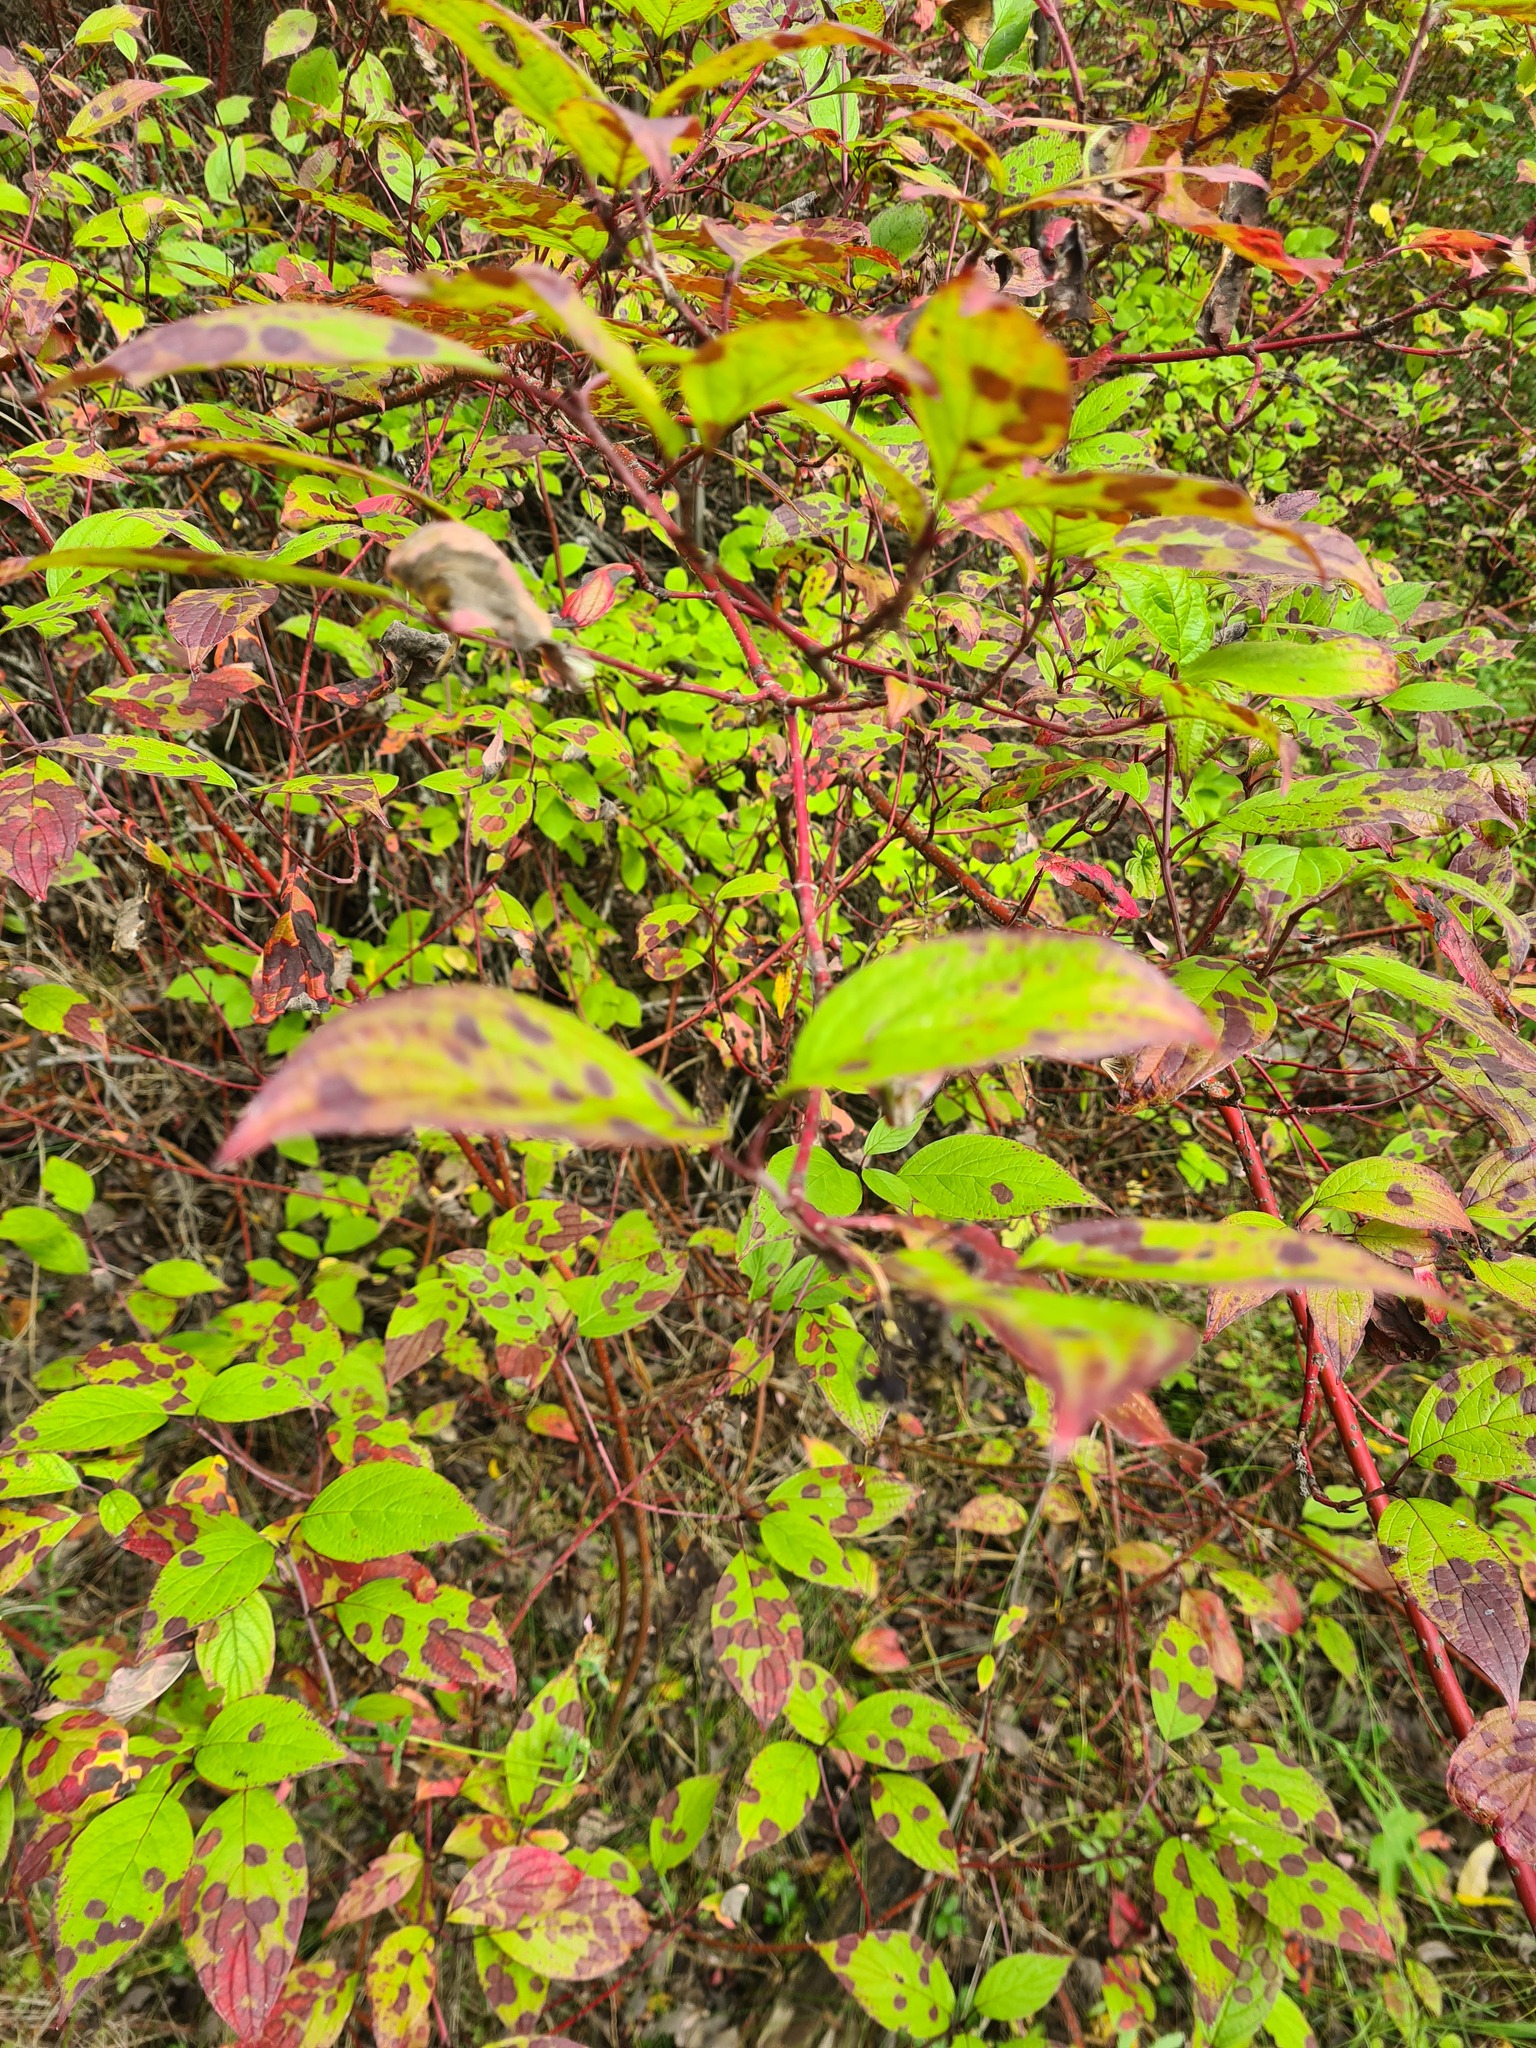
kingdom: Plantae
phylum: Tracheophyta
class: Magnoliopsida
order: Cornales
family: Cornaceae
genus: Cornus
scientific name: Cornus alba
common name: White dogwood
